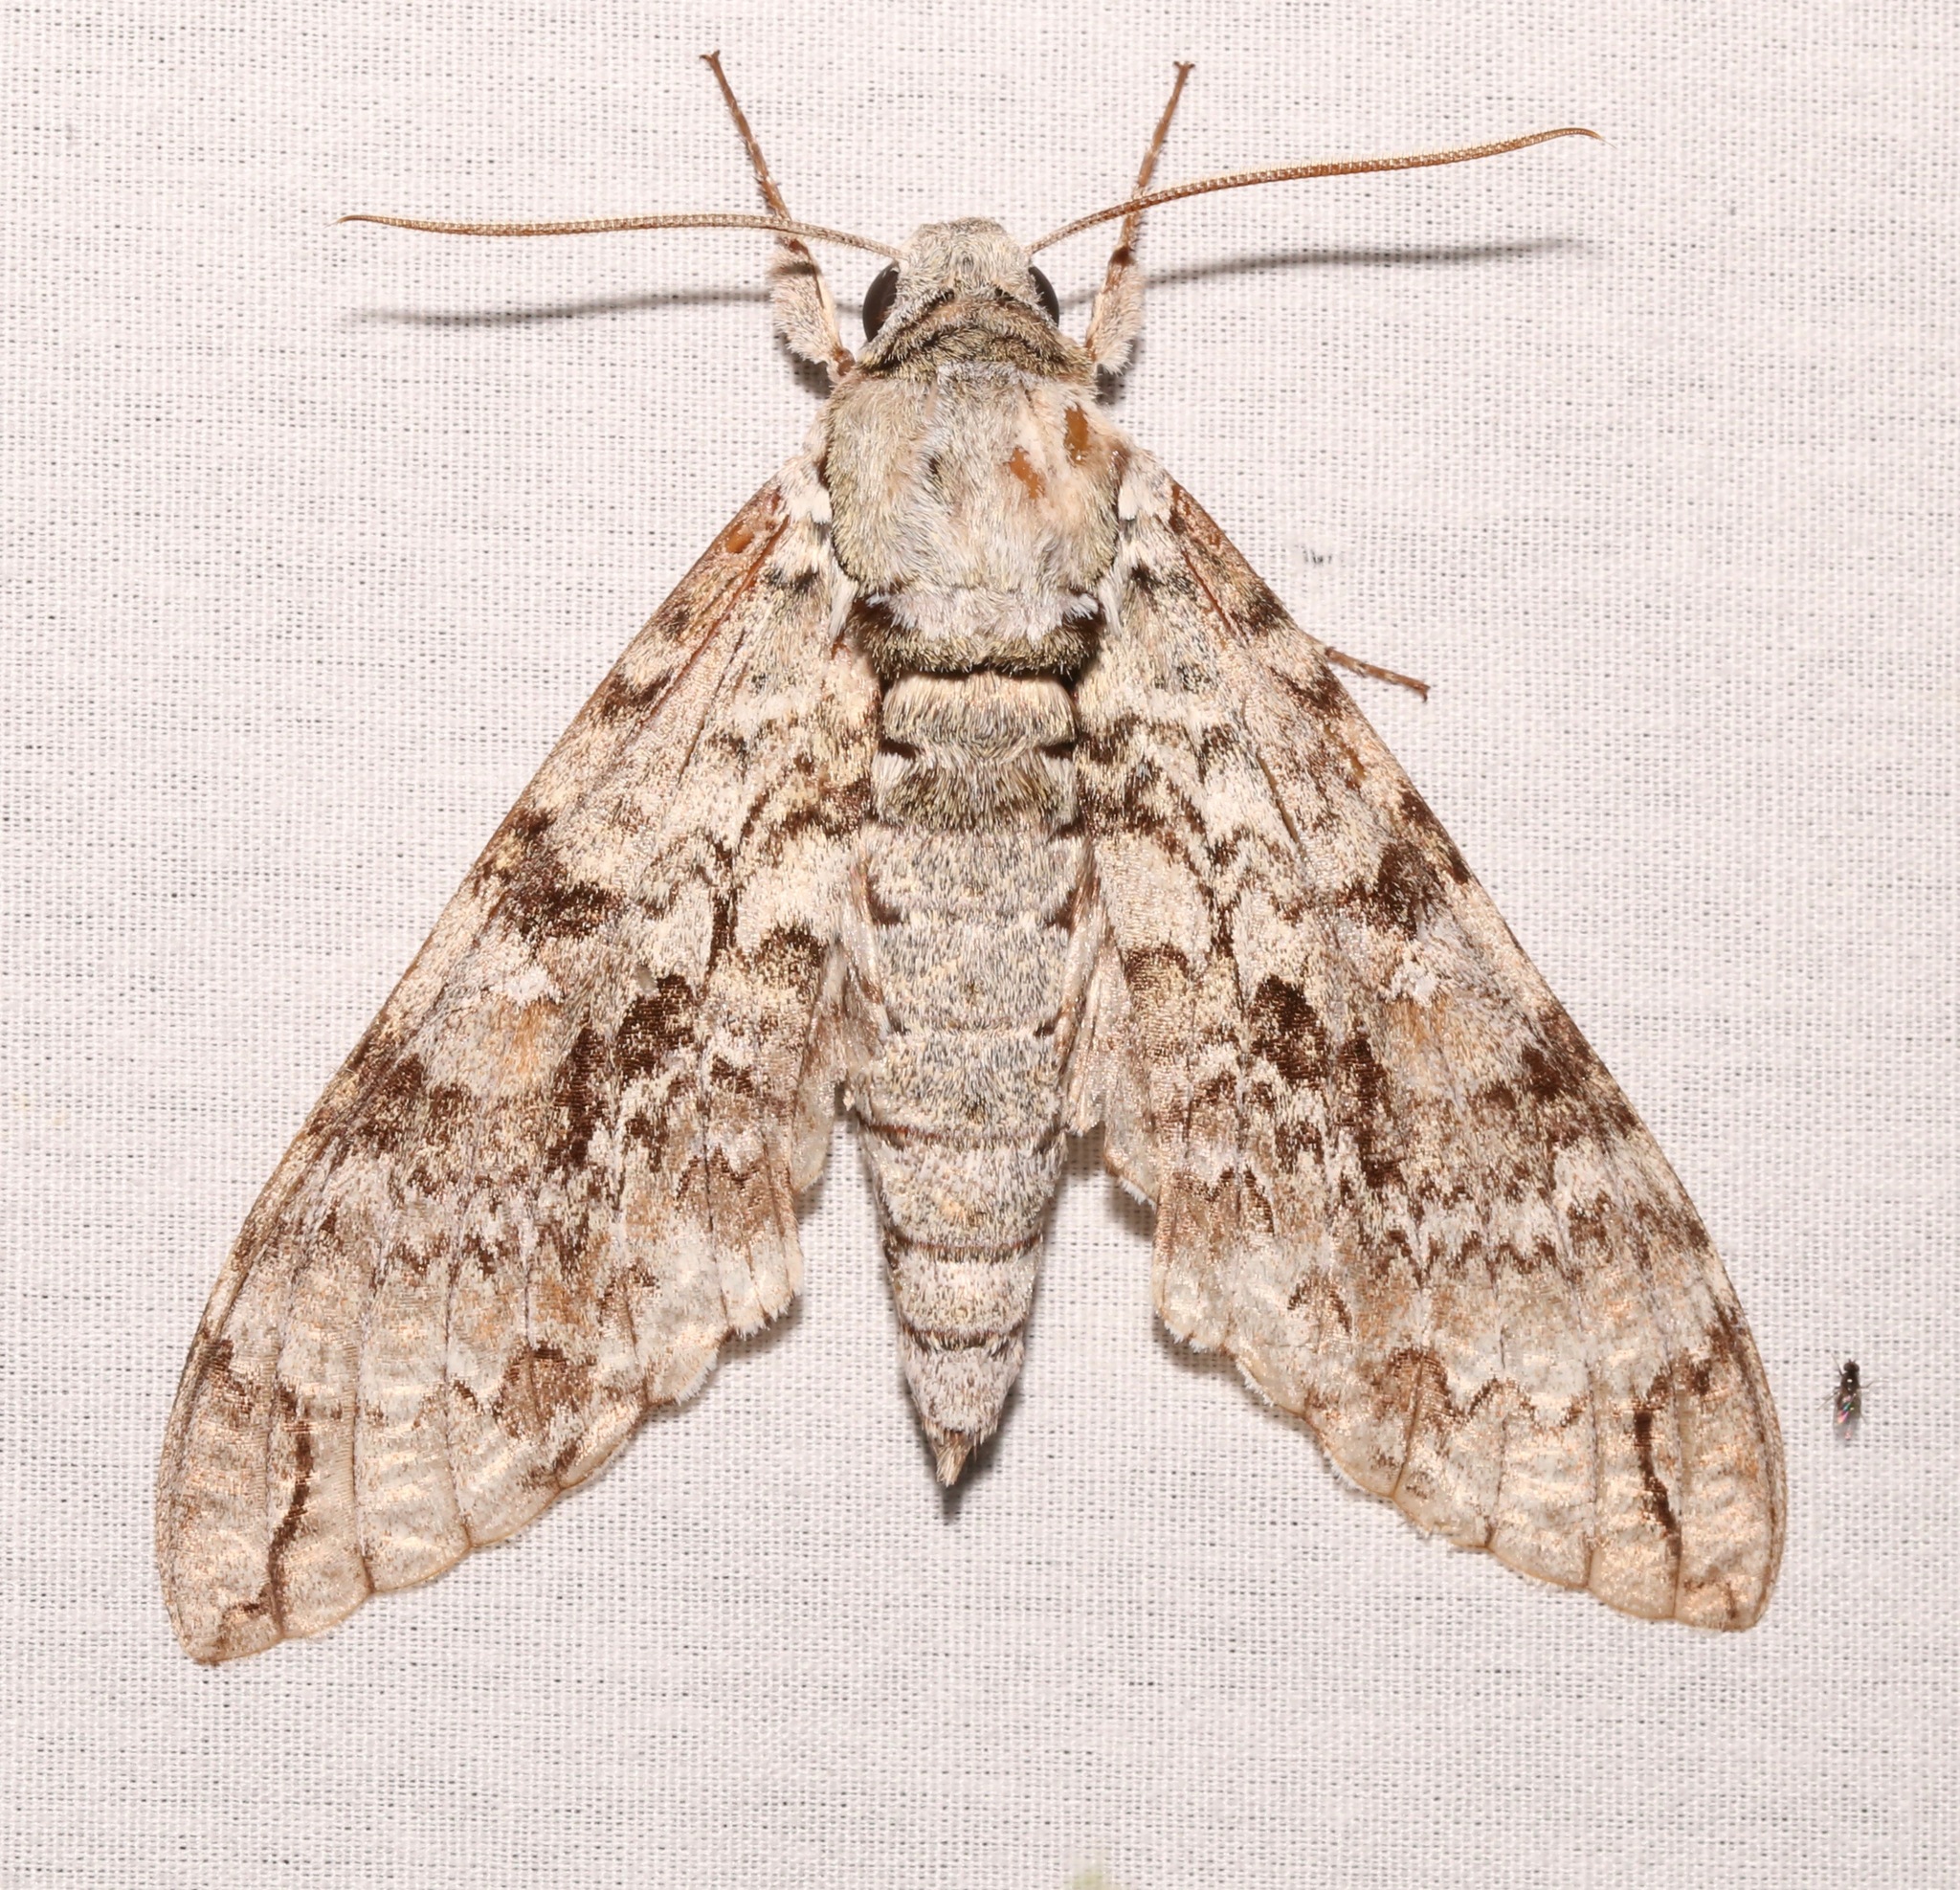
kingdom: Animalia
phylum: Arthropoda
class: Insecta
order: Lepidoptera
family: Sphingidae
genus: Manduca
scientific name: Manduca florestan
